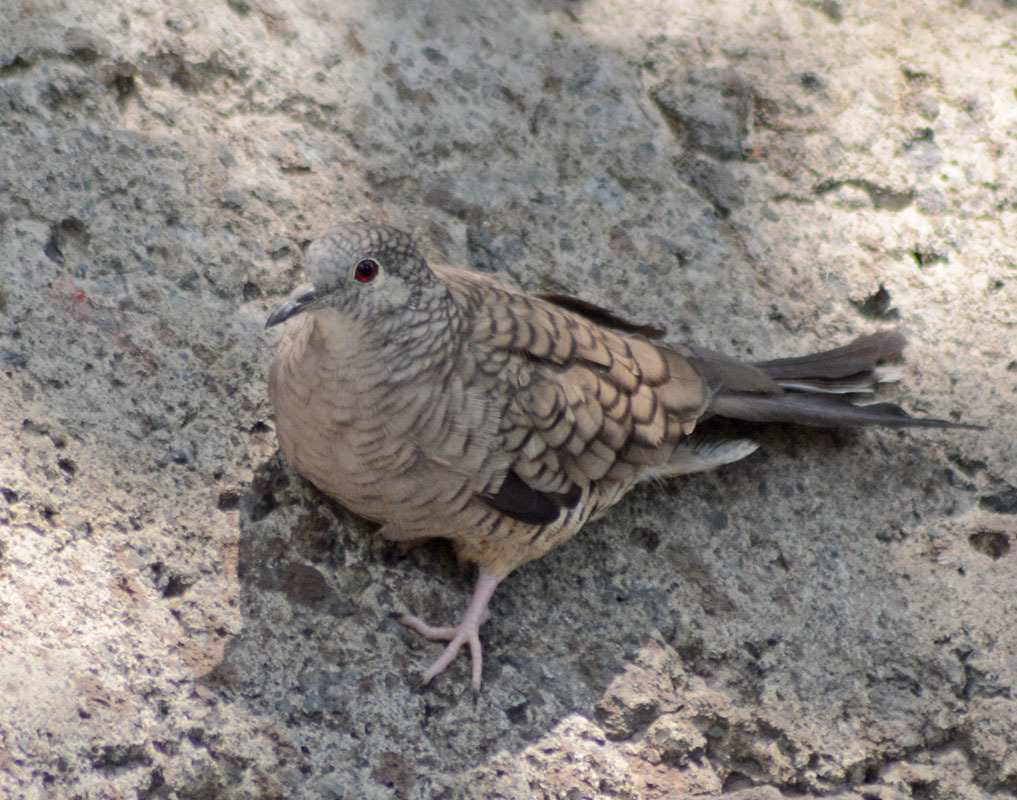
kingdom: Animalia
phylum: Chordata
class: Aves
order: Columbiformes
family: Columbidae
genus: Columbina
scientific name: Columbina inca
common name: Inca dove
